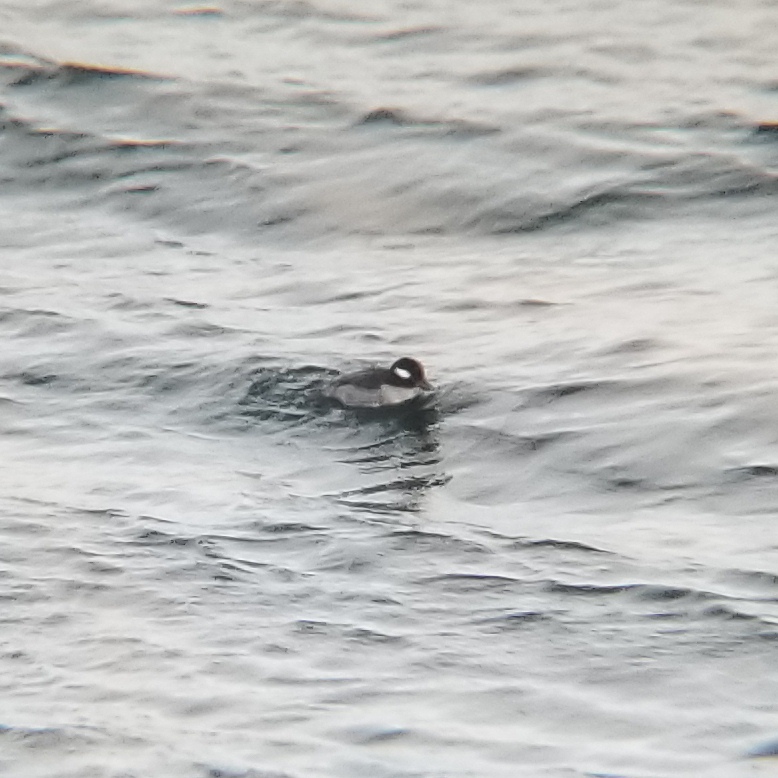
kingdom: Animalia
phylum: Chordata
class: Aves
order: Anseriformes
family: Anatidae
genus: Bucephala
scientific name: Bucephala albeola
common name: Bufflehead
